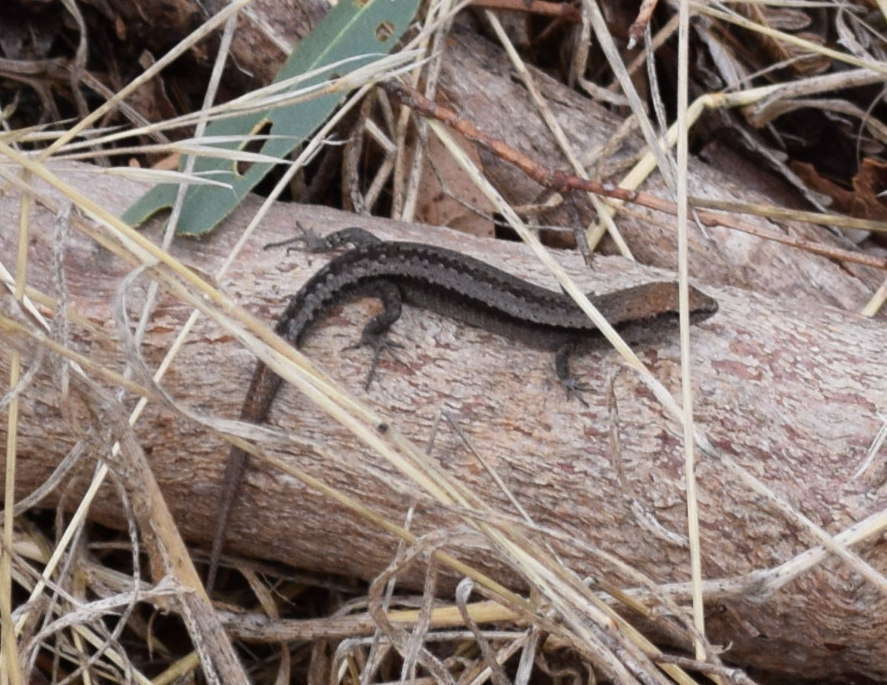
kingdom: Animalia
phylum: Chordata
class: Squamata
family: Scincidae
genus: Lampropholis
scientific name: Lampropholis guichenoti
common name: Garden skink
